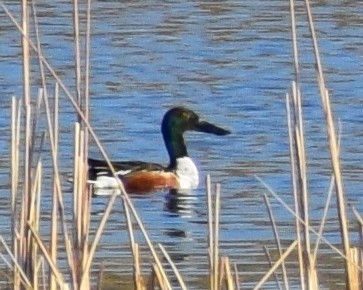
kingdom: Animalia
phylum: Chordata
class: Aves
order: Anseriformes
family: Anatidae
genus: Spatula
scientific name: Spatula clypeata
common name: Northern shoveler
